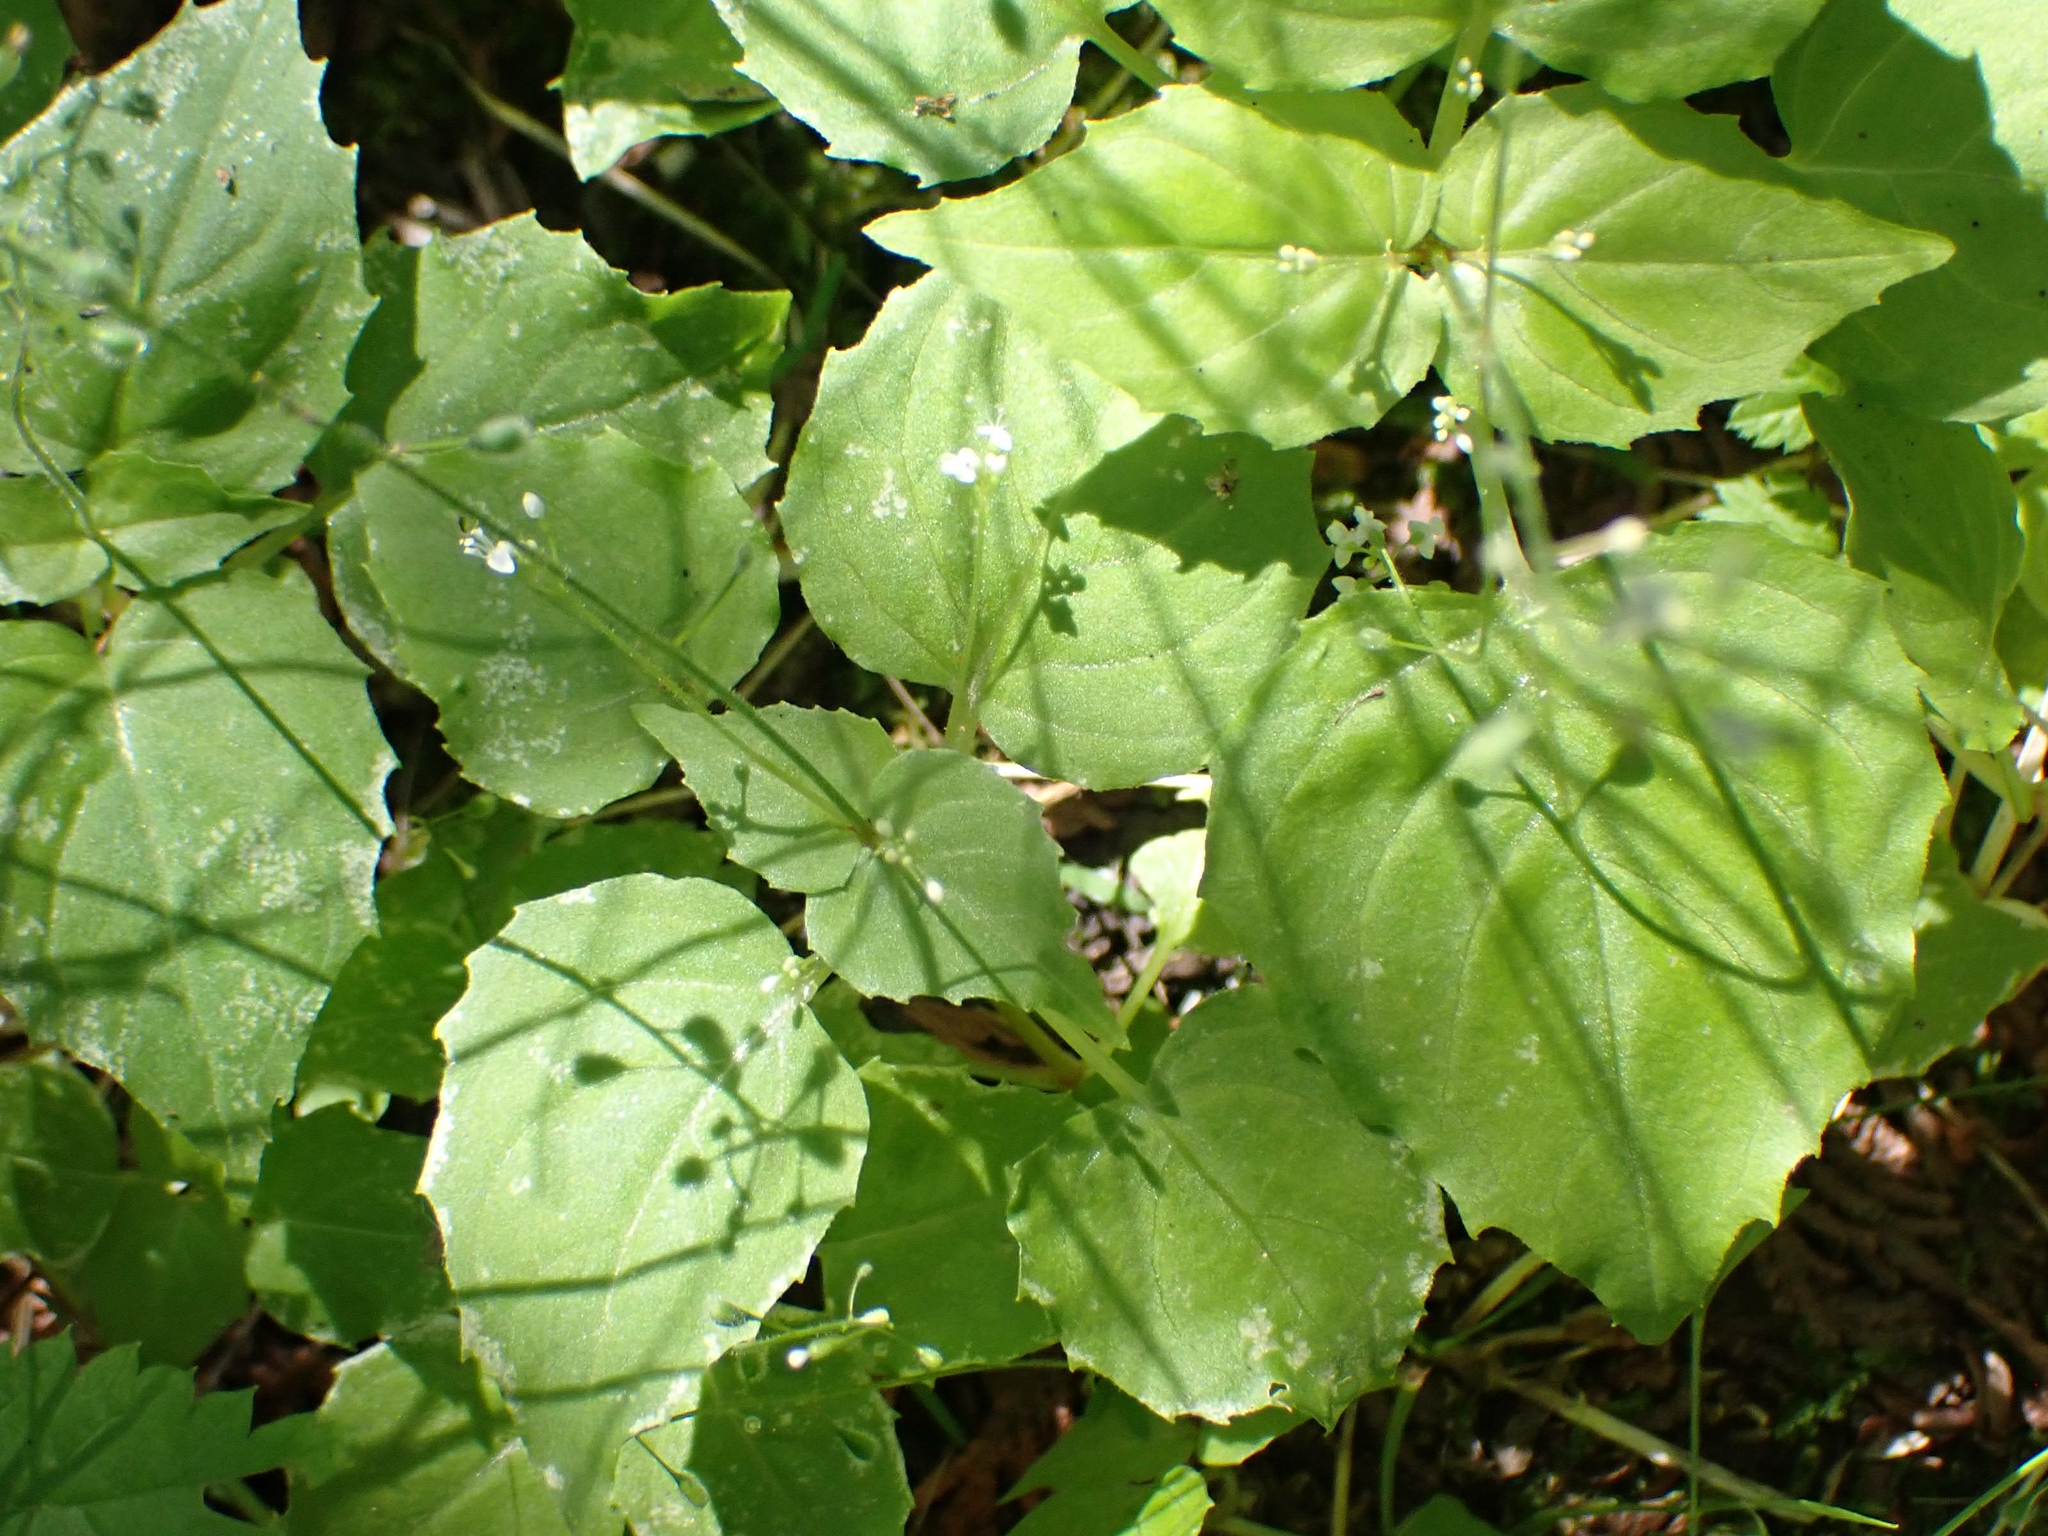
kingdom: Plantae
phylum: Tracheophyta
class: Magnoliopsida
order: Myrtales
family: Onagraceae
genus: Circaea
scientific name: Circaea alpina
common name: Alpine enchanter's-nightshade
